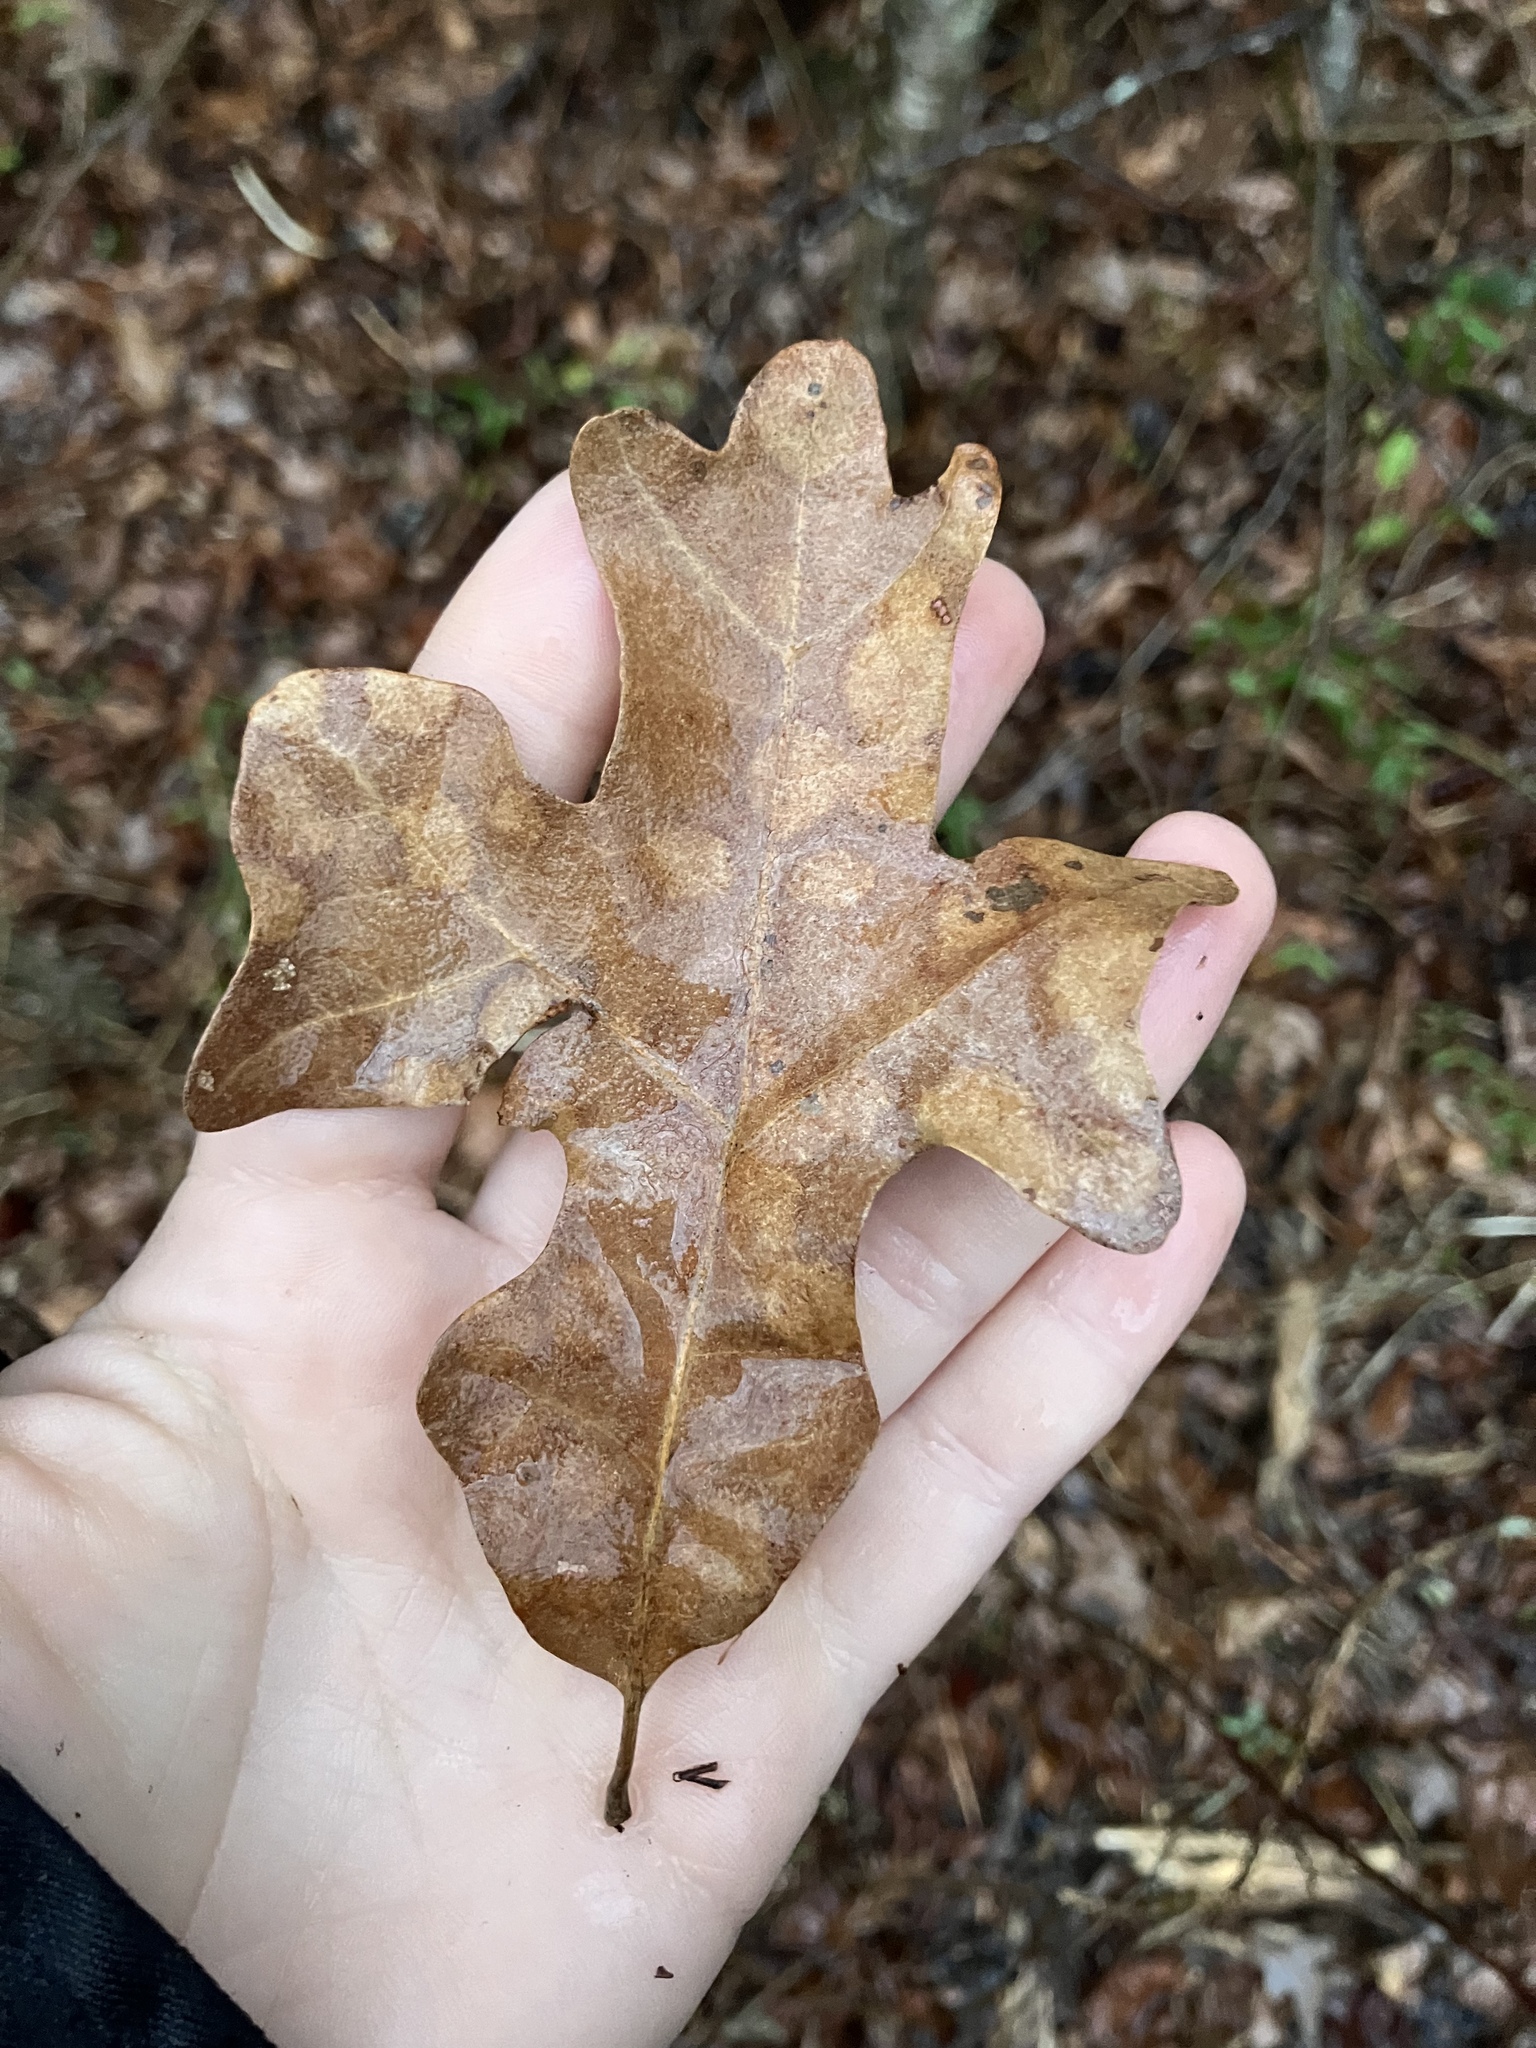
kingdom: Plantae
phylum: Tracheophyta
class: Magnoliopsida
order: Fagales
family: Fagaceae
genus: Quercus
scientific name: Quercus stellata
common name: Post oak
